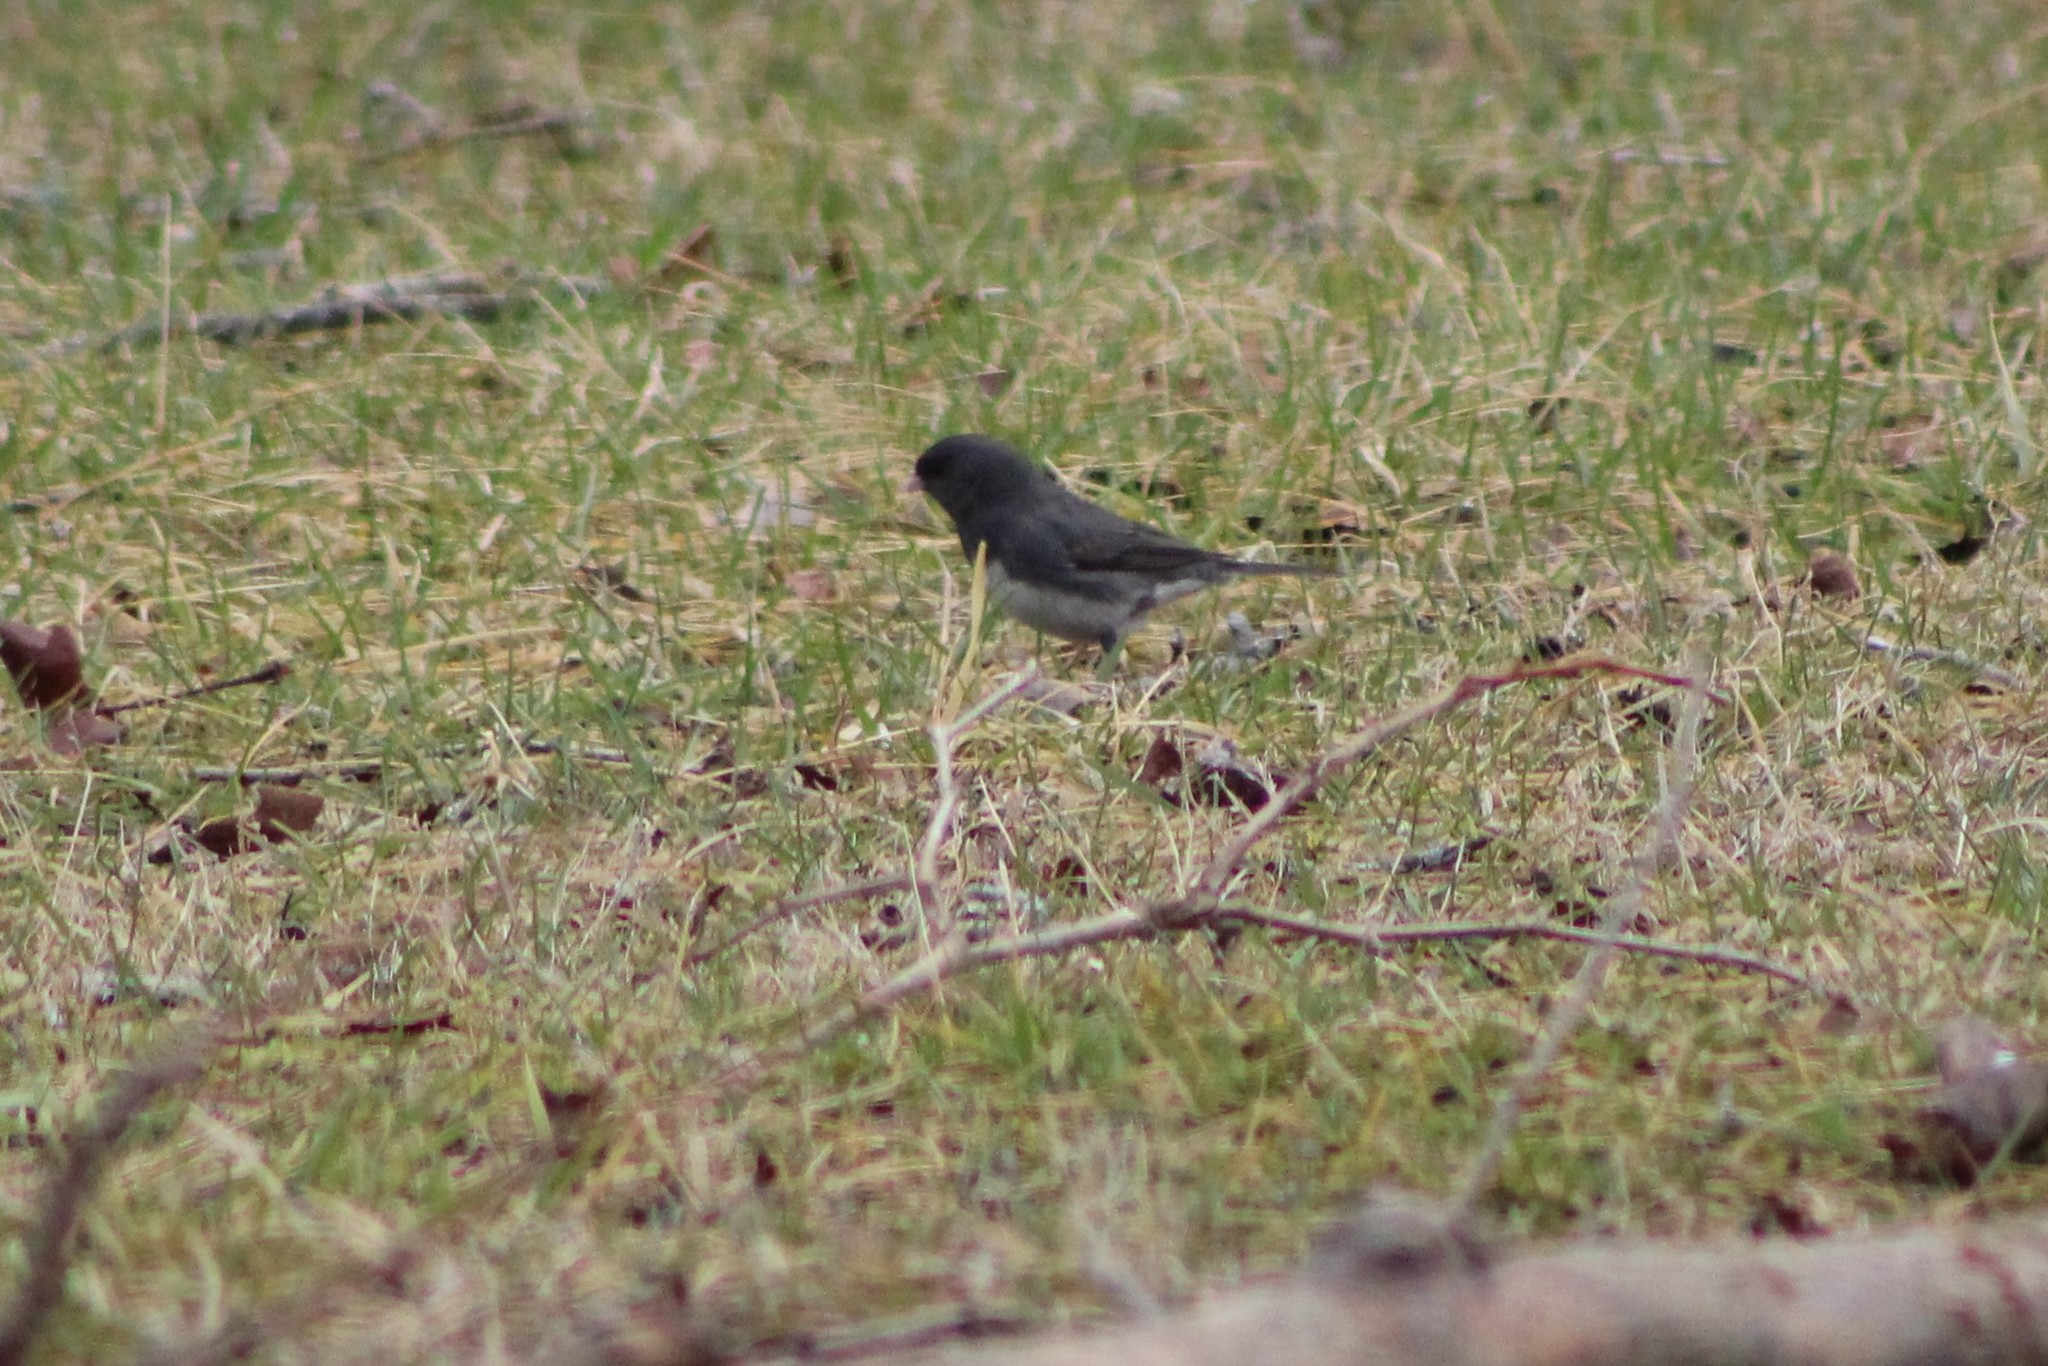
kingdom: Animalia
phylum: Chordata
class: Aves
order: Passeriformes
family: Passerellidae
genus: Junco
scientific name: Junco hyemalis
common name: Dark-eyed junco
